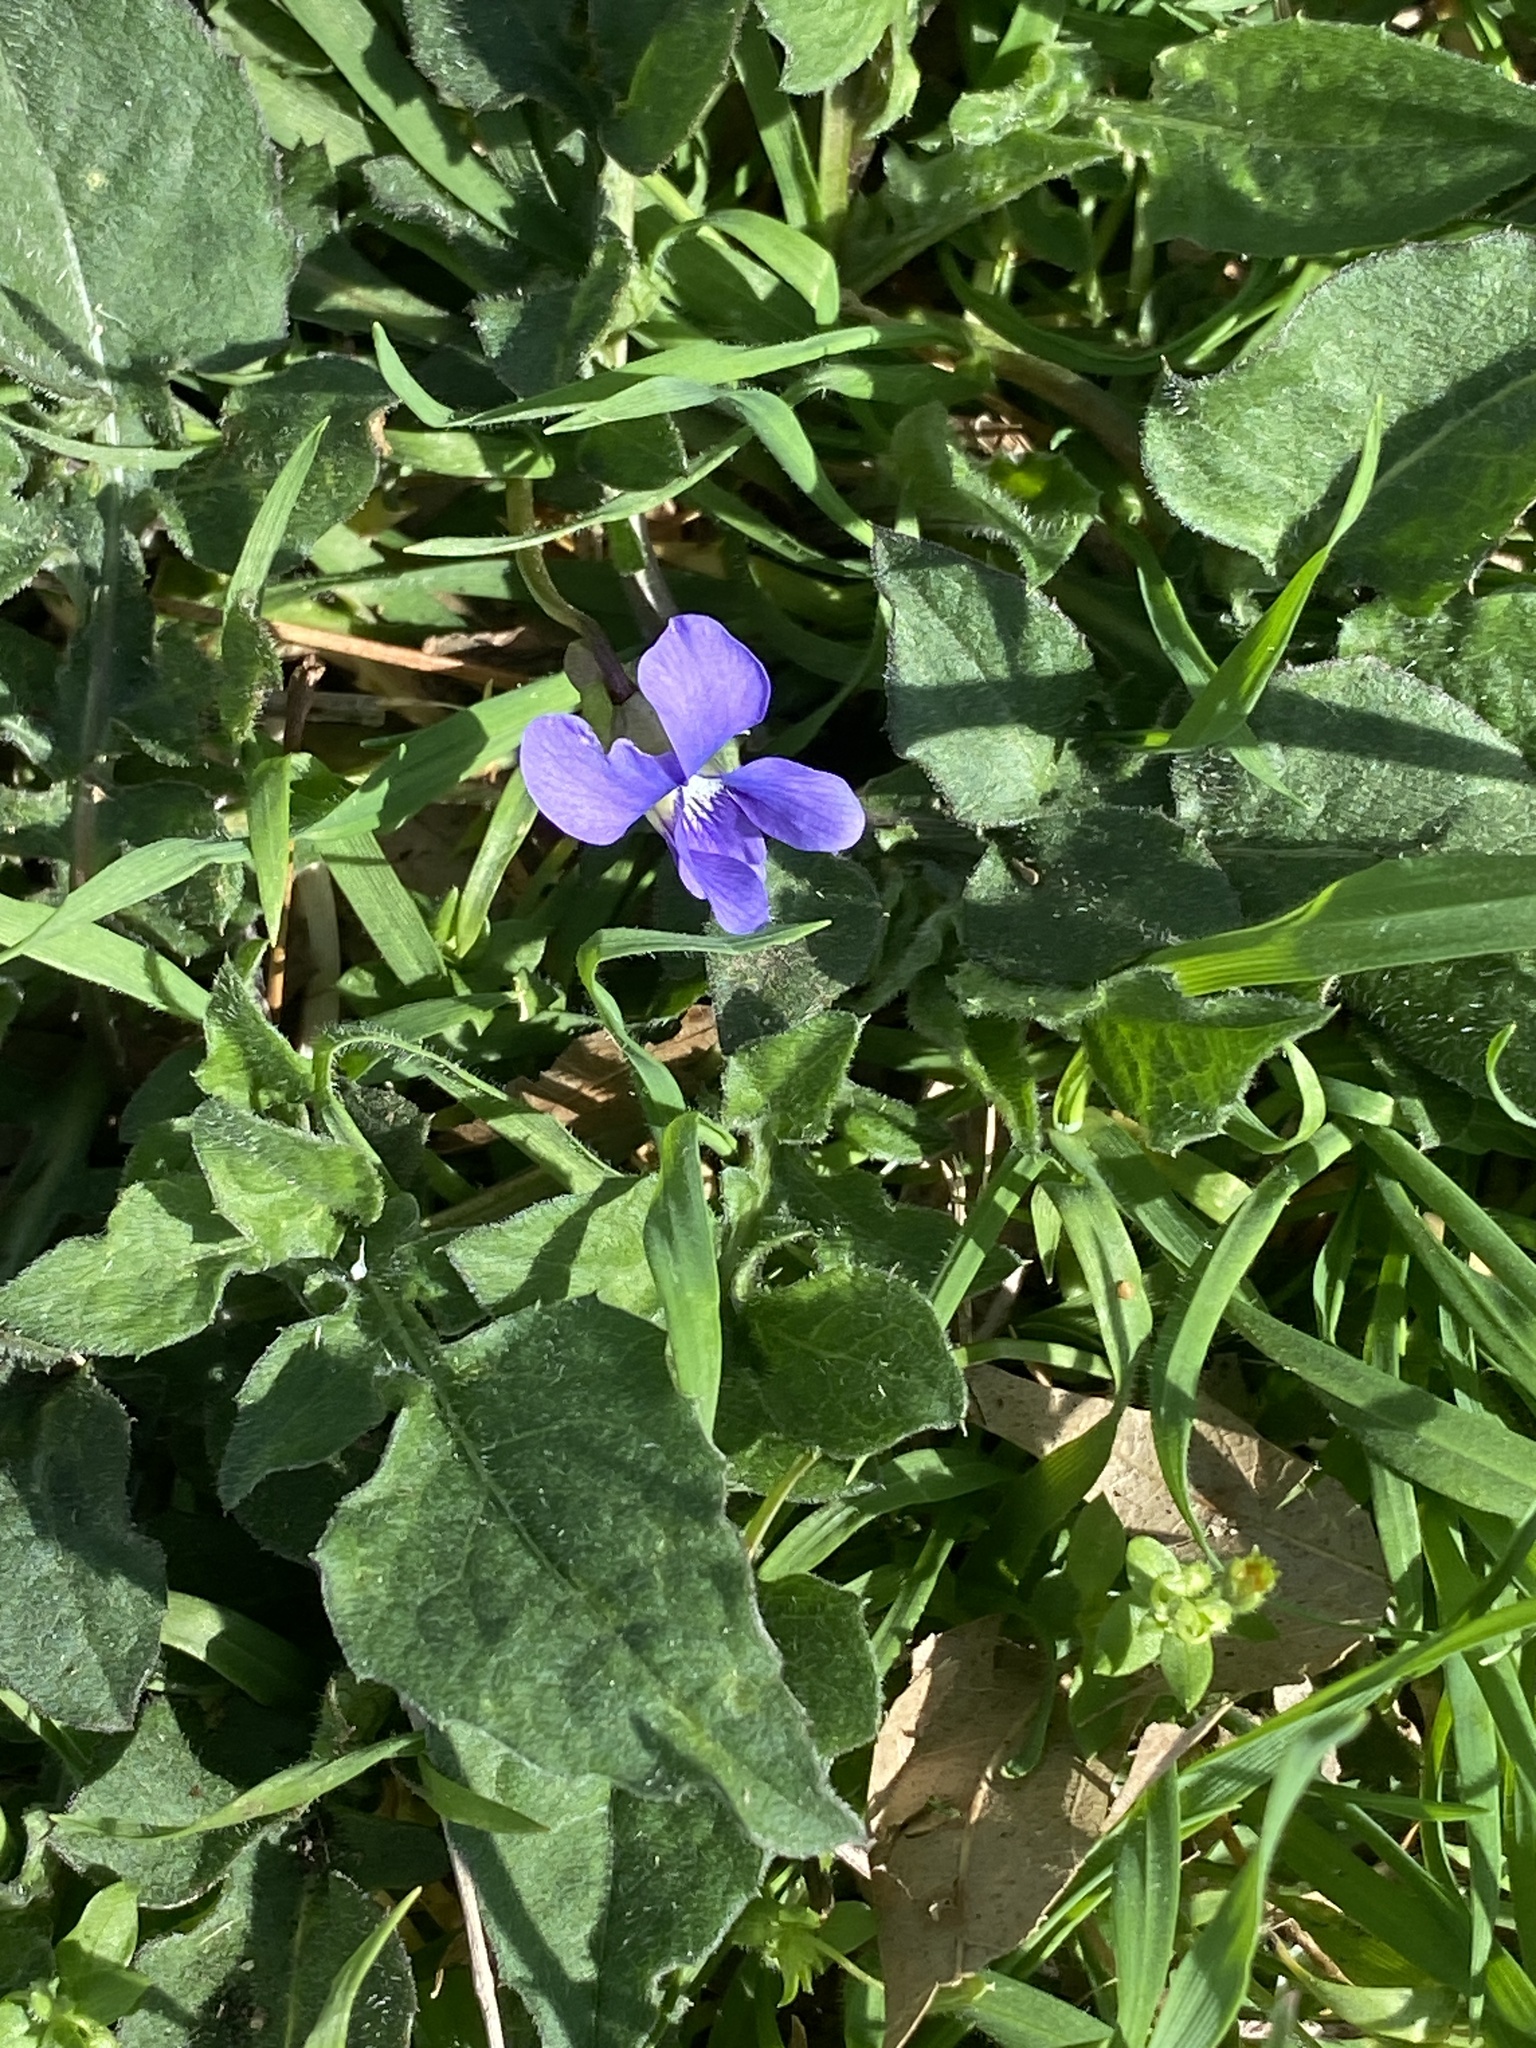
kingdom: Plantae
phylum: Tracheophyta
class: Magnoliopsida
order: Malpighiales
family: Violaceae
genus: Viola
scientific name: Viola sororia
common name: Dooryard violet
